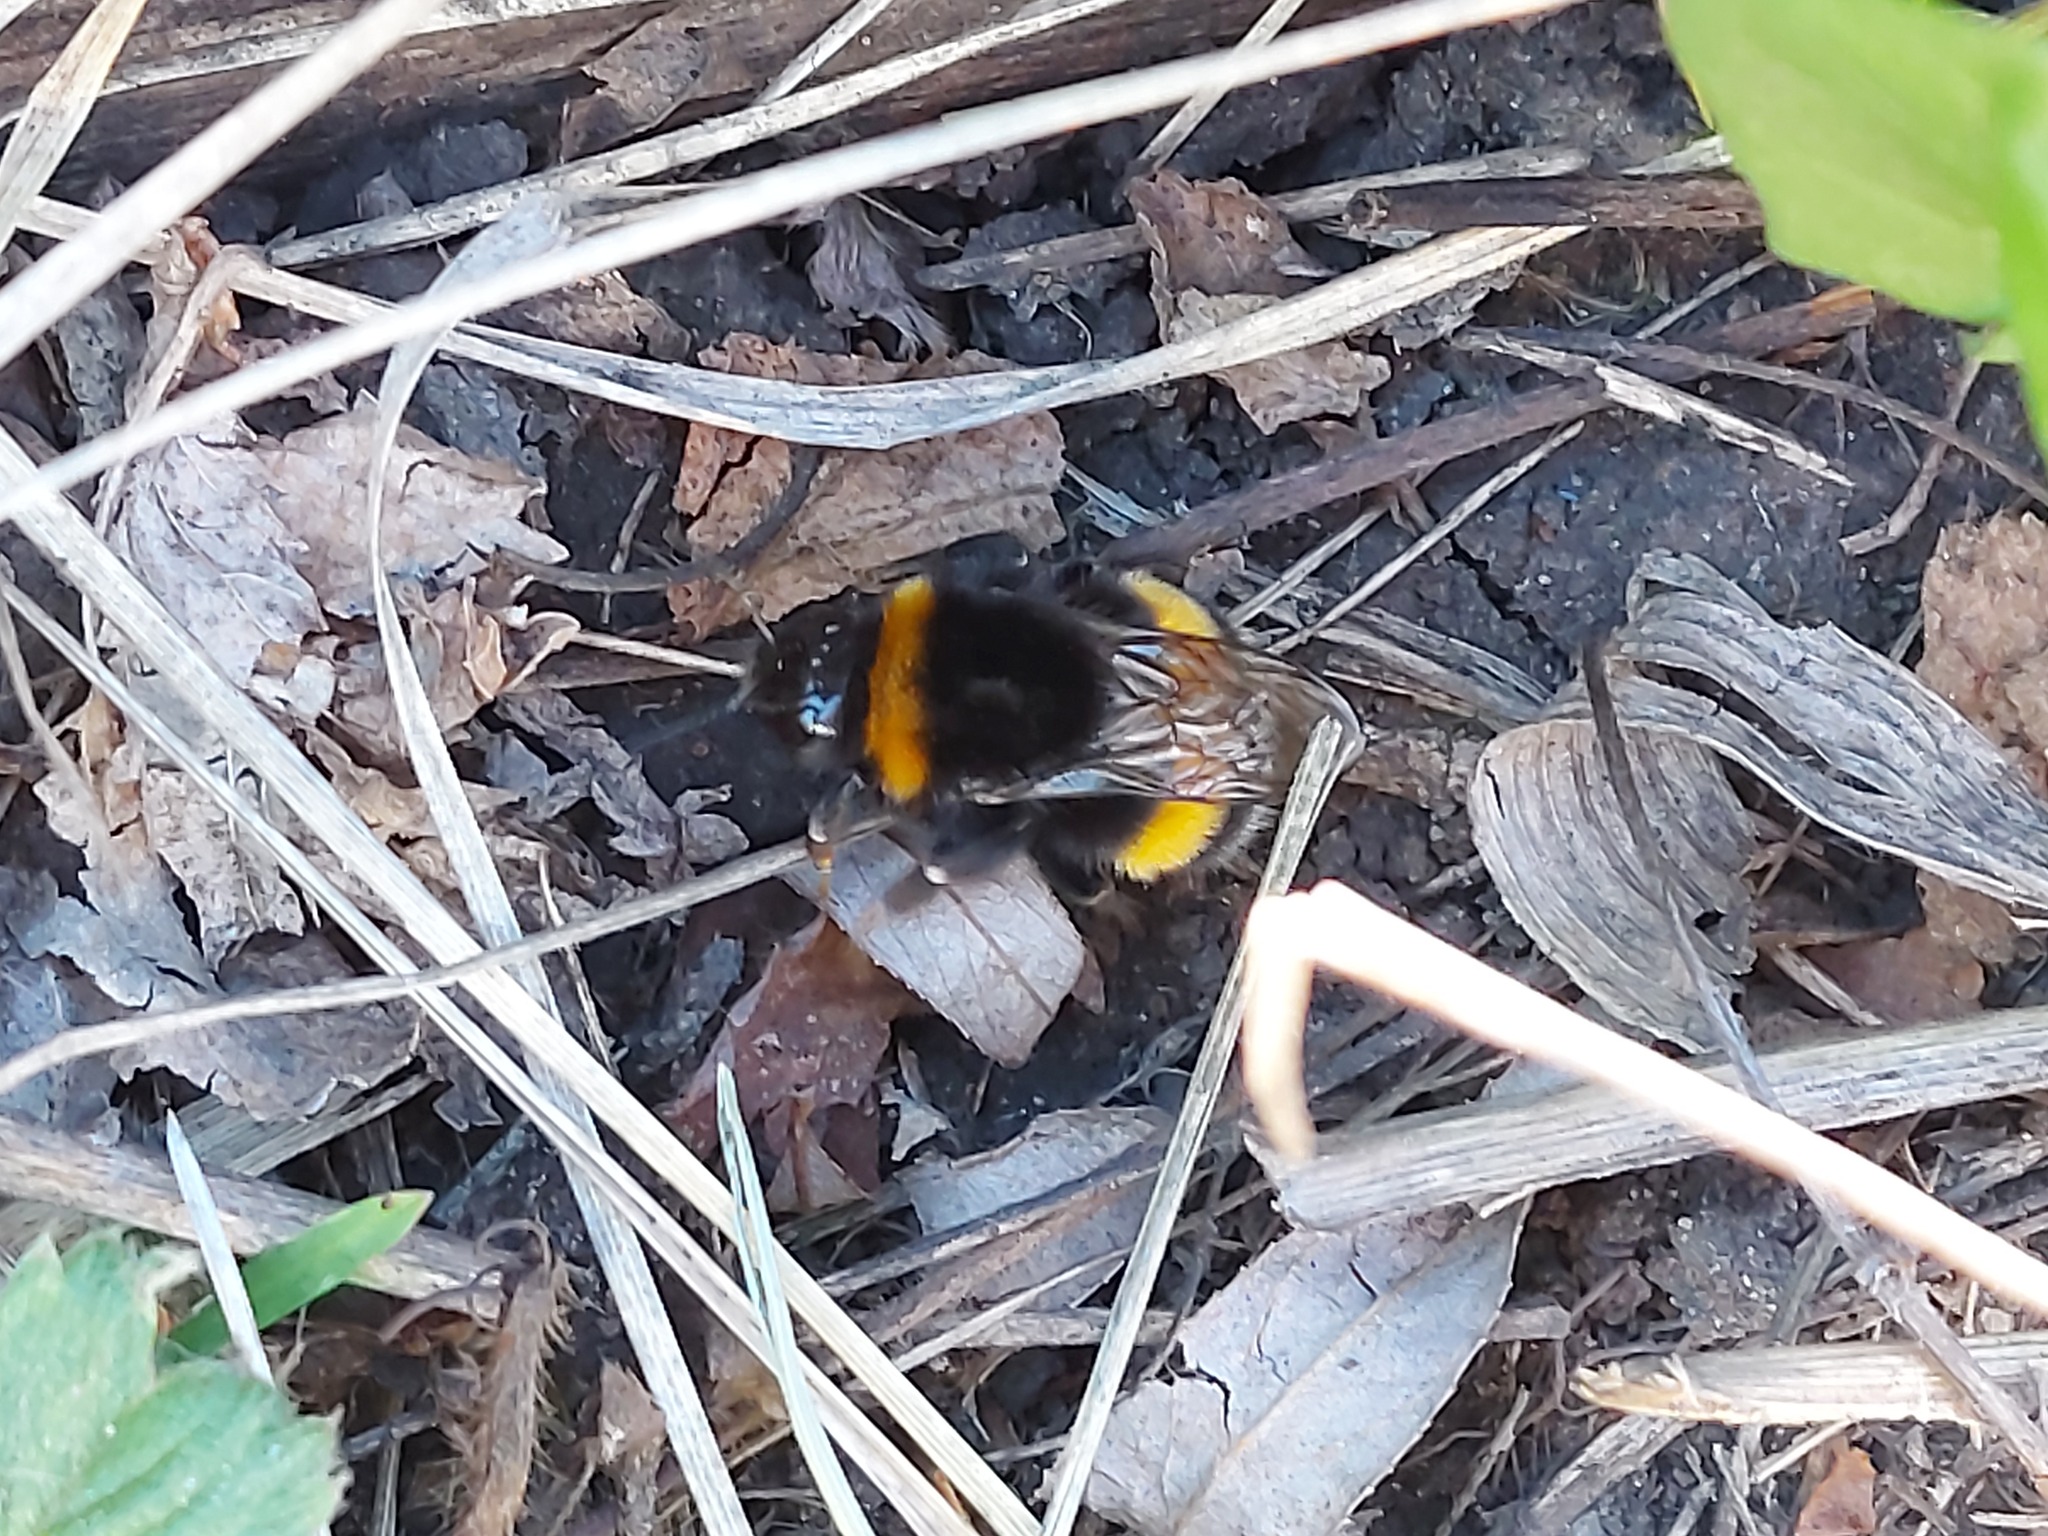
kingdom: Animalia
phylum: Arthropoda
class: Insecta
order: Hymenoptera
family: Apidae
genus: Bombus
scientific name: Bombus
